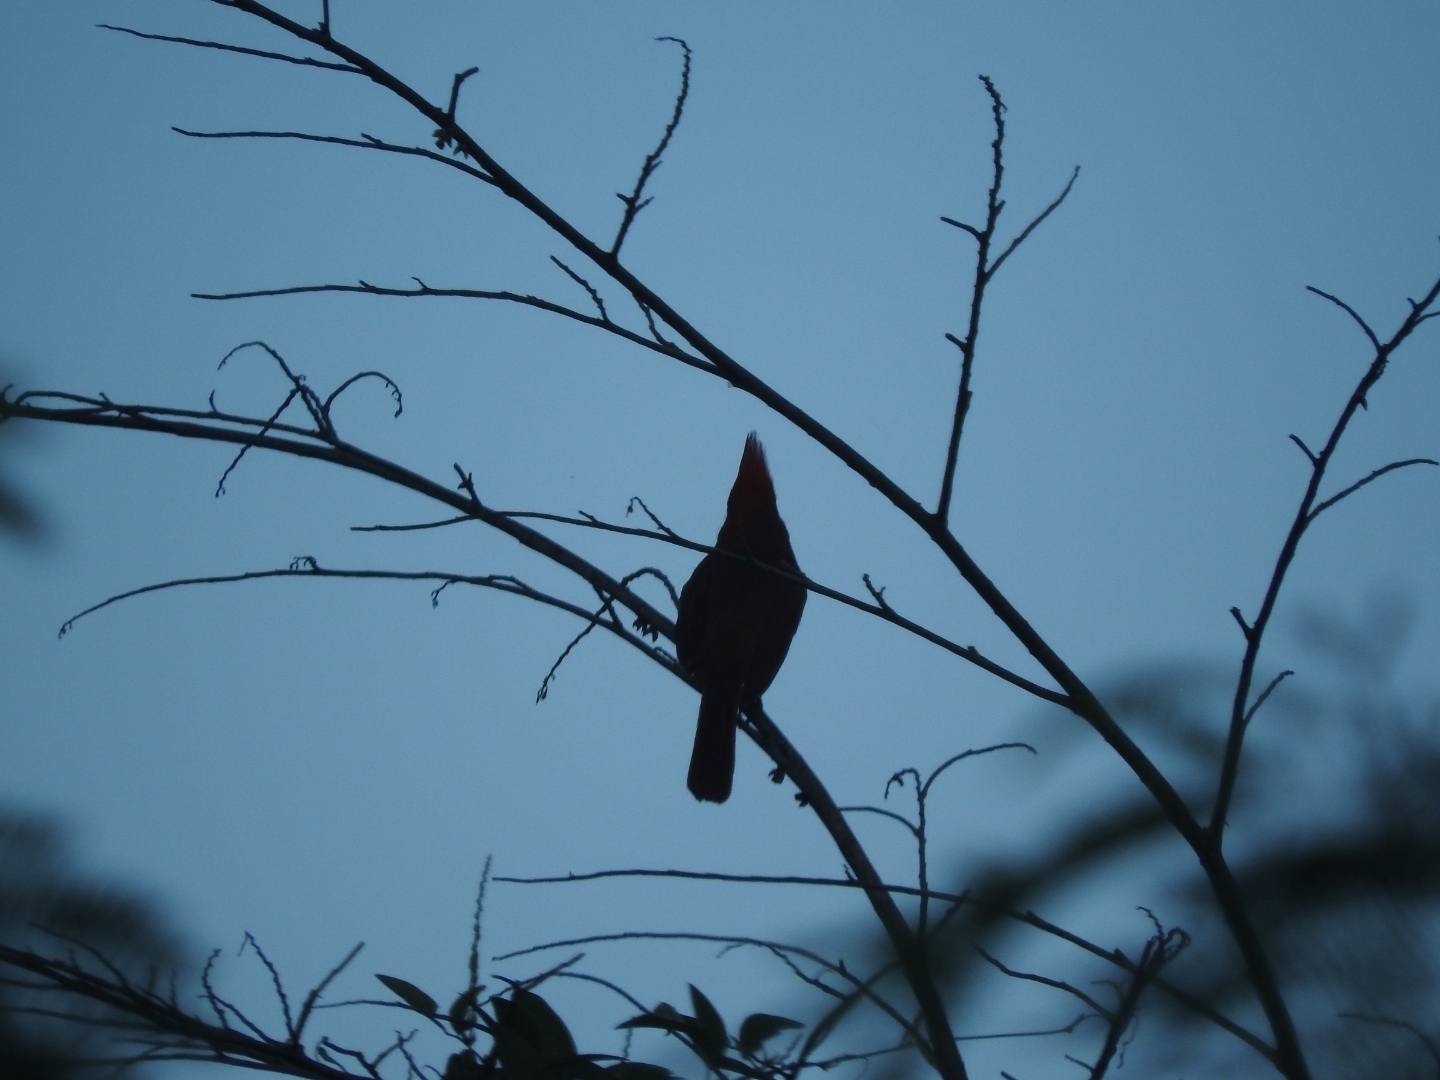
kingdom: Animalia
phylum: Chordata
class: Aves
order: Passeriformes
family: Cardinalidae
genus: Cardinalis
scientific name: Cardinalis cardinalis
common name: Northern cardinal
